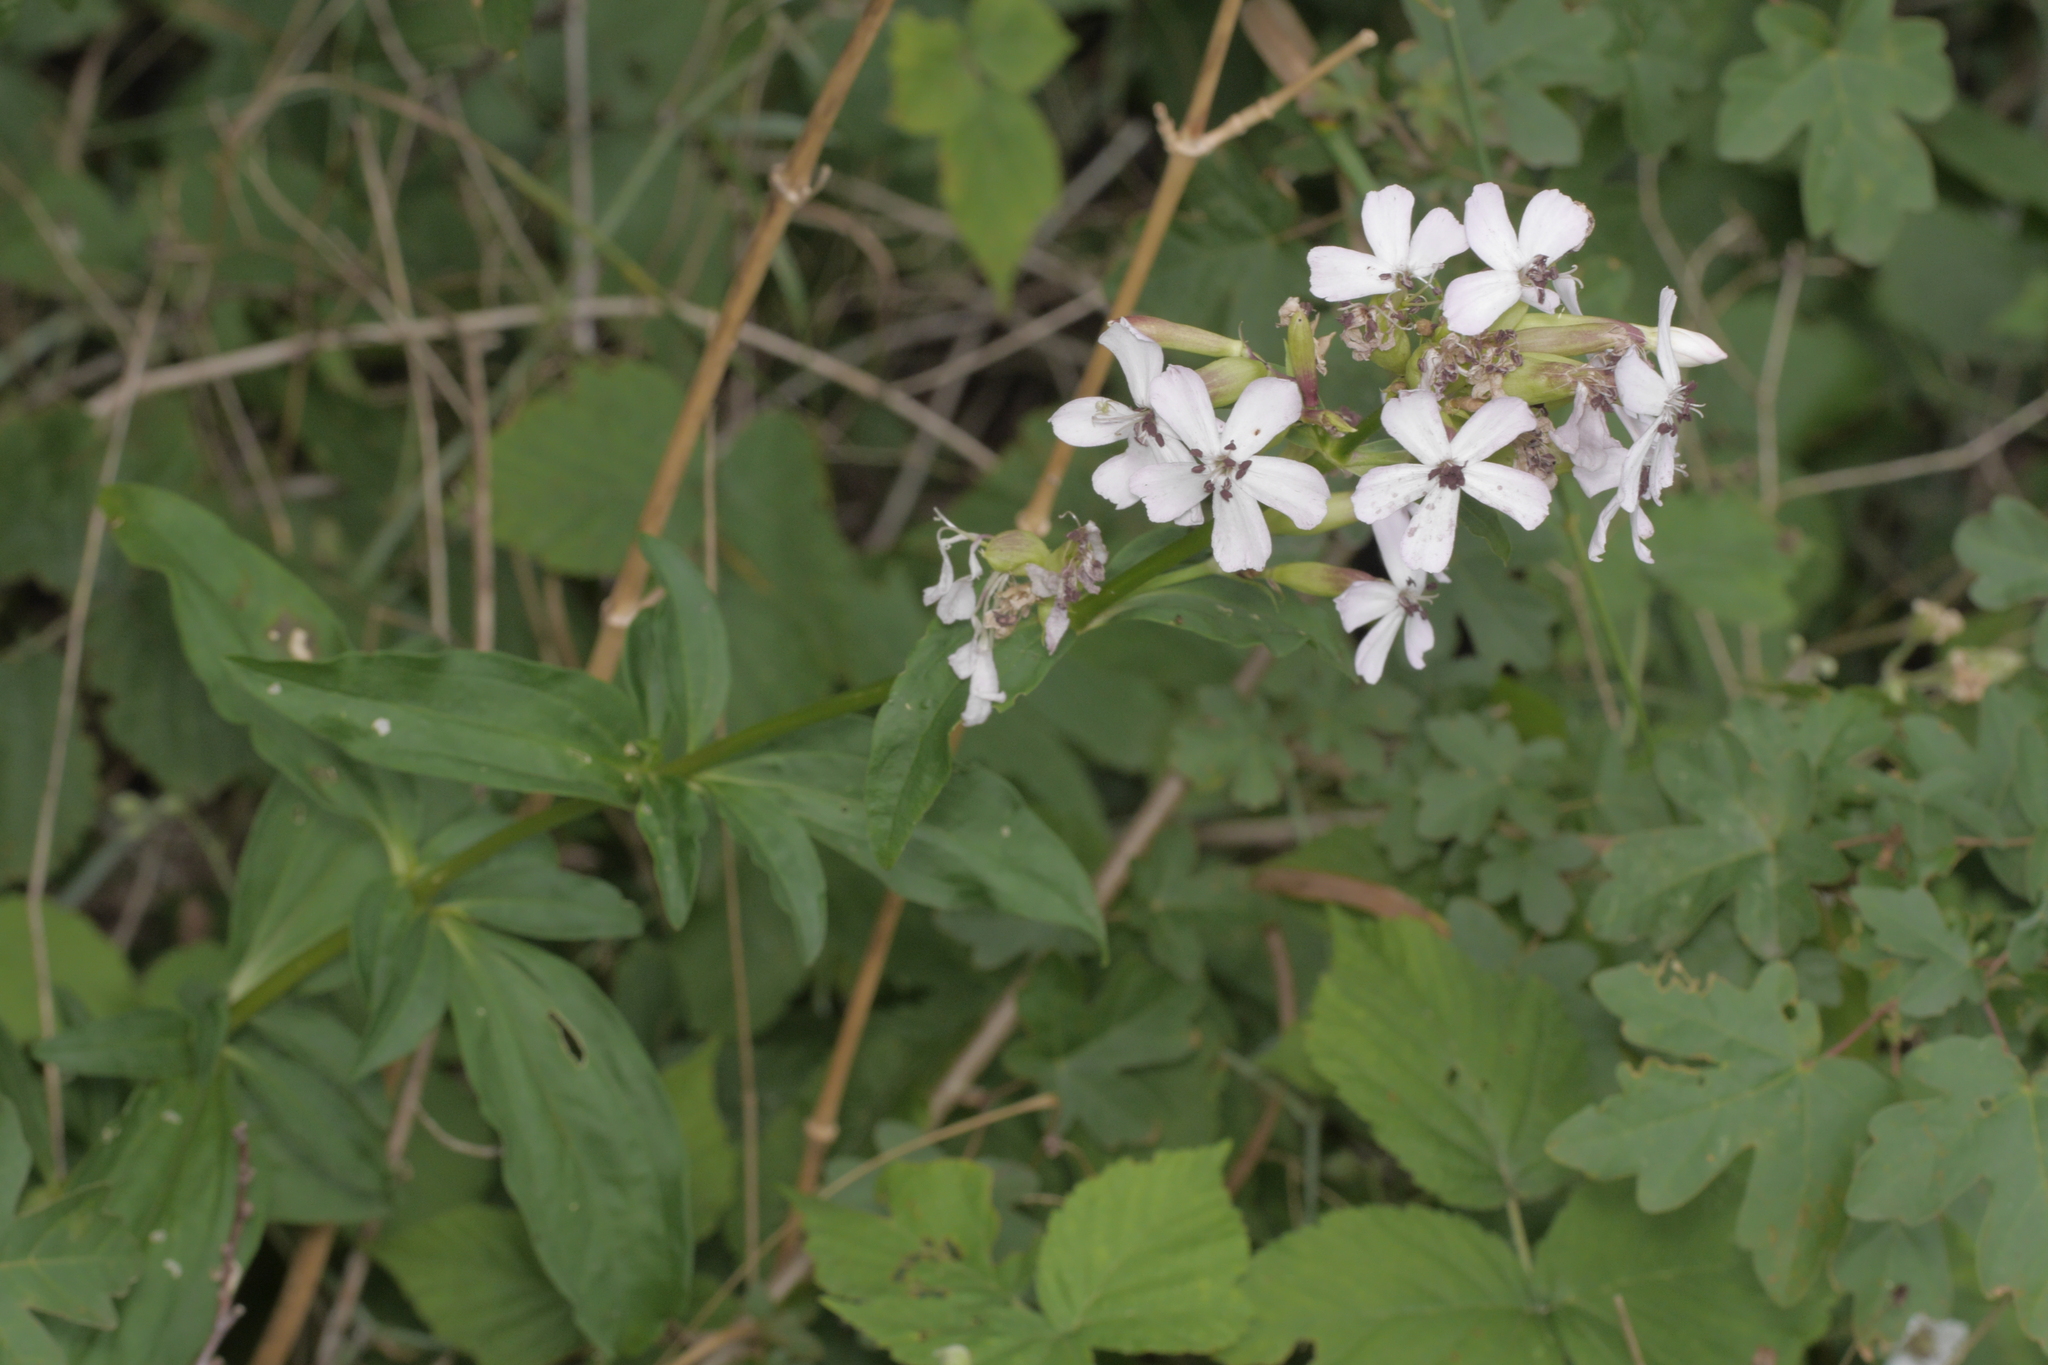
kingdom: Plantae
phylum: Tracheophyta
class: Magnoliopsida
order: Caryophyllales
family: Caryophyllaceae
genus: Saponaria
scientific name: Saponaria officinalis
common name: Soapwort
